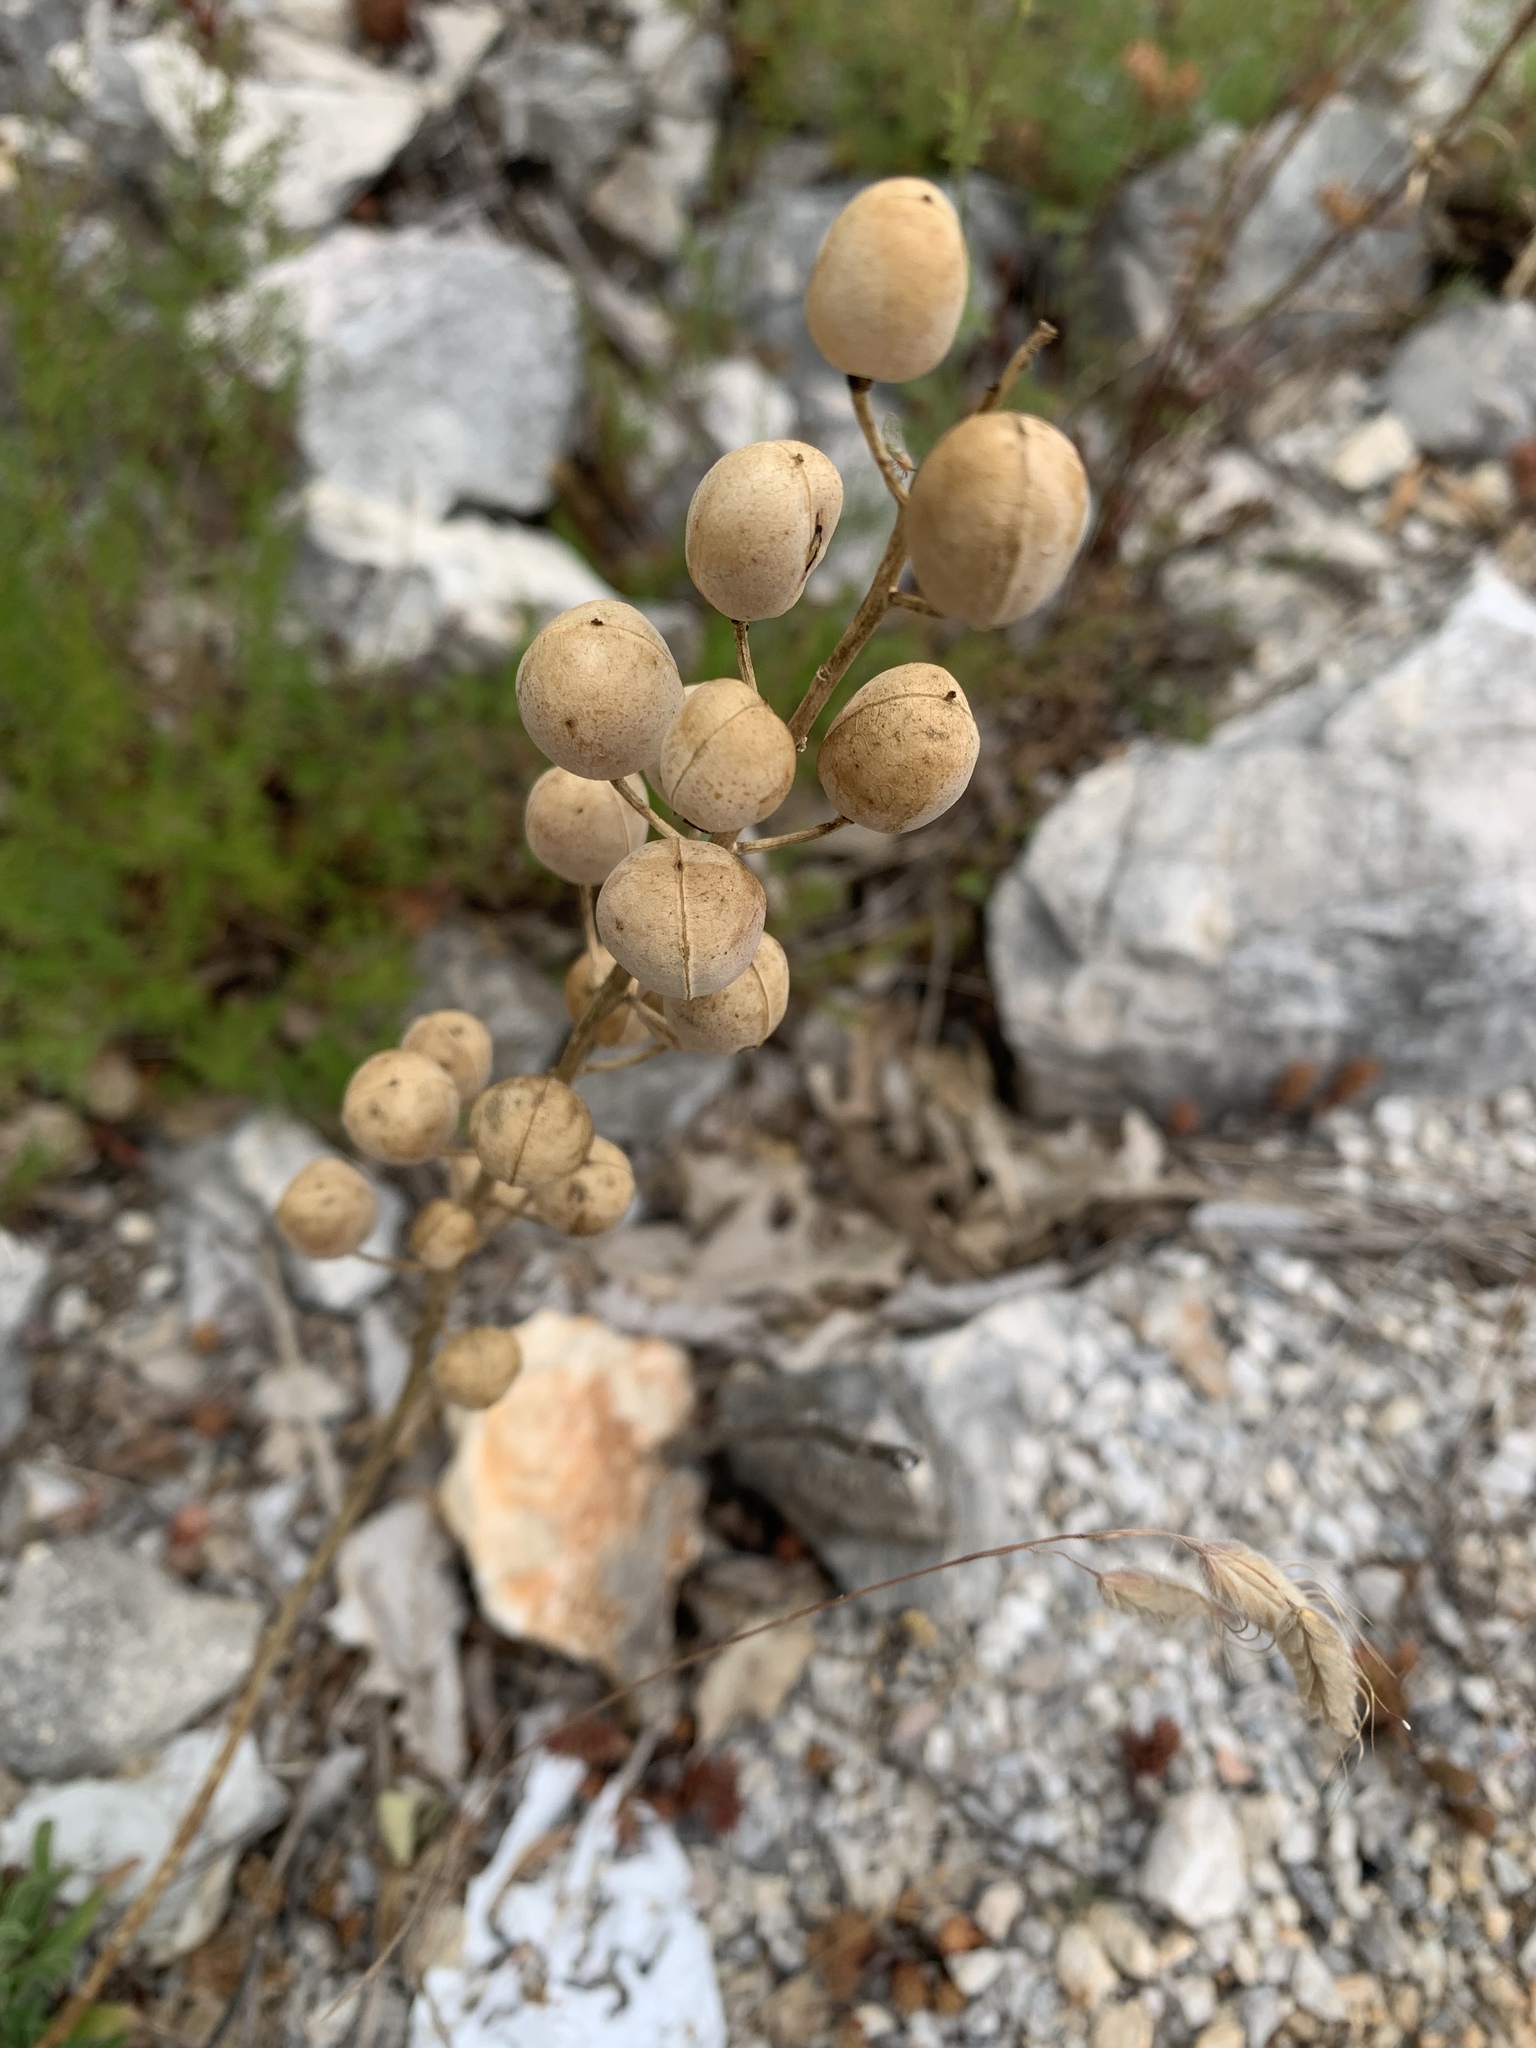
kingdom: Plantae
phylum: Tracheophyta
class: Magnoliopsida
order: Brassicales
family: Brassicaceae
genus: Alyssoides
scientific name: Alyssoides utriculata
